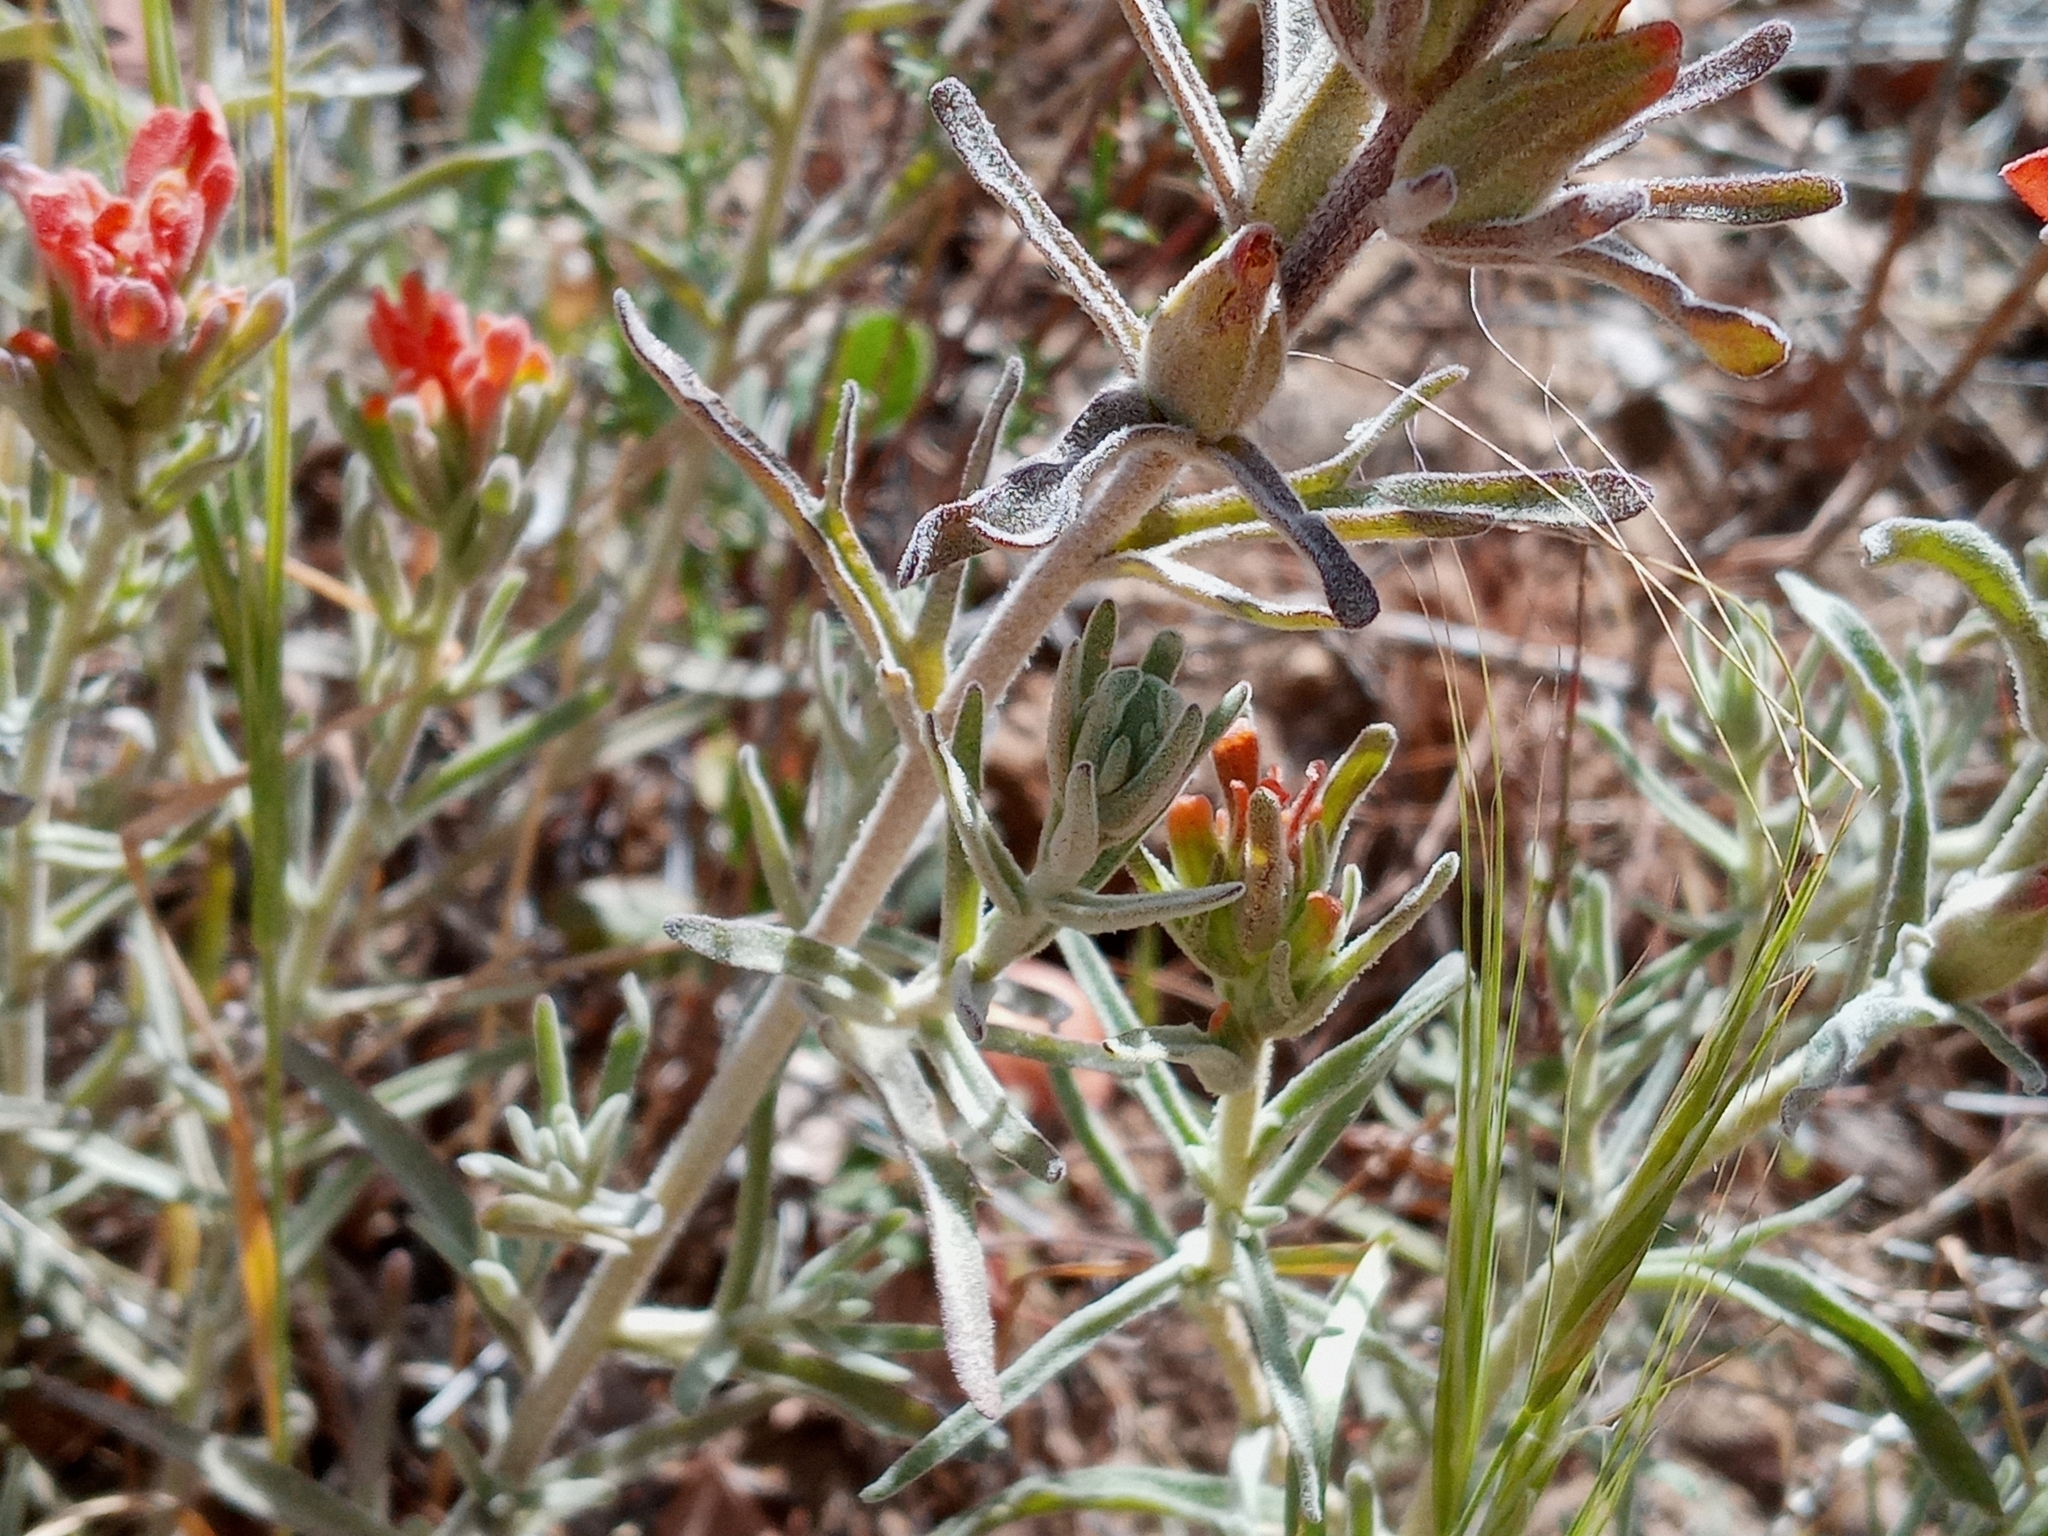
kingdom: Plantae
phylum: Tracheophyta
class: Magnoliopsida
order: Lamiales
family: Orobanchaceae
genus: Castilleja
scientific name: Castilleja foliolosa
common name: Woolly indian paintbrush
